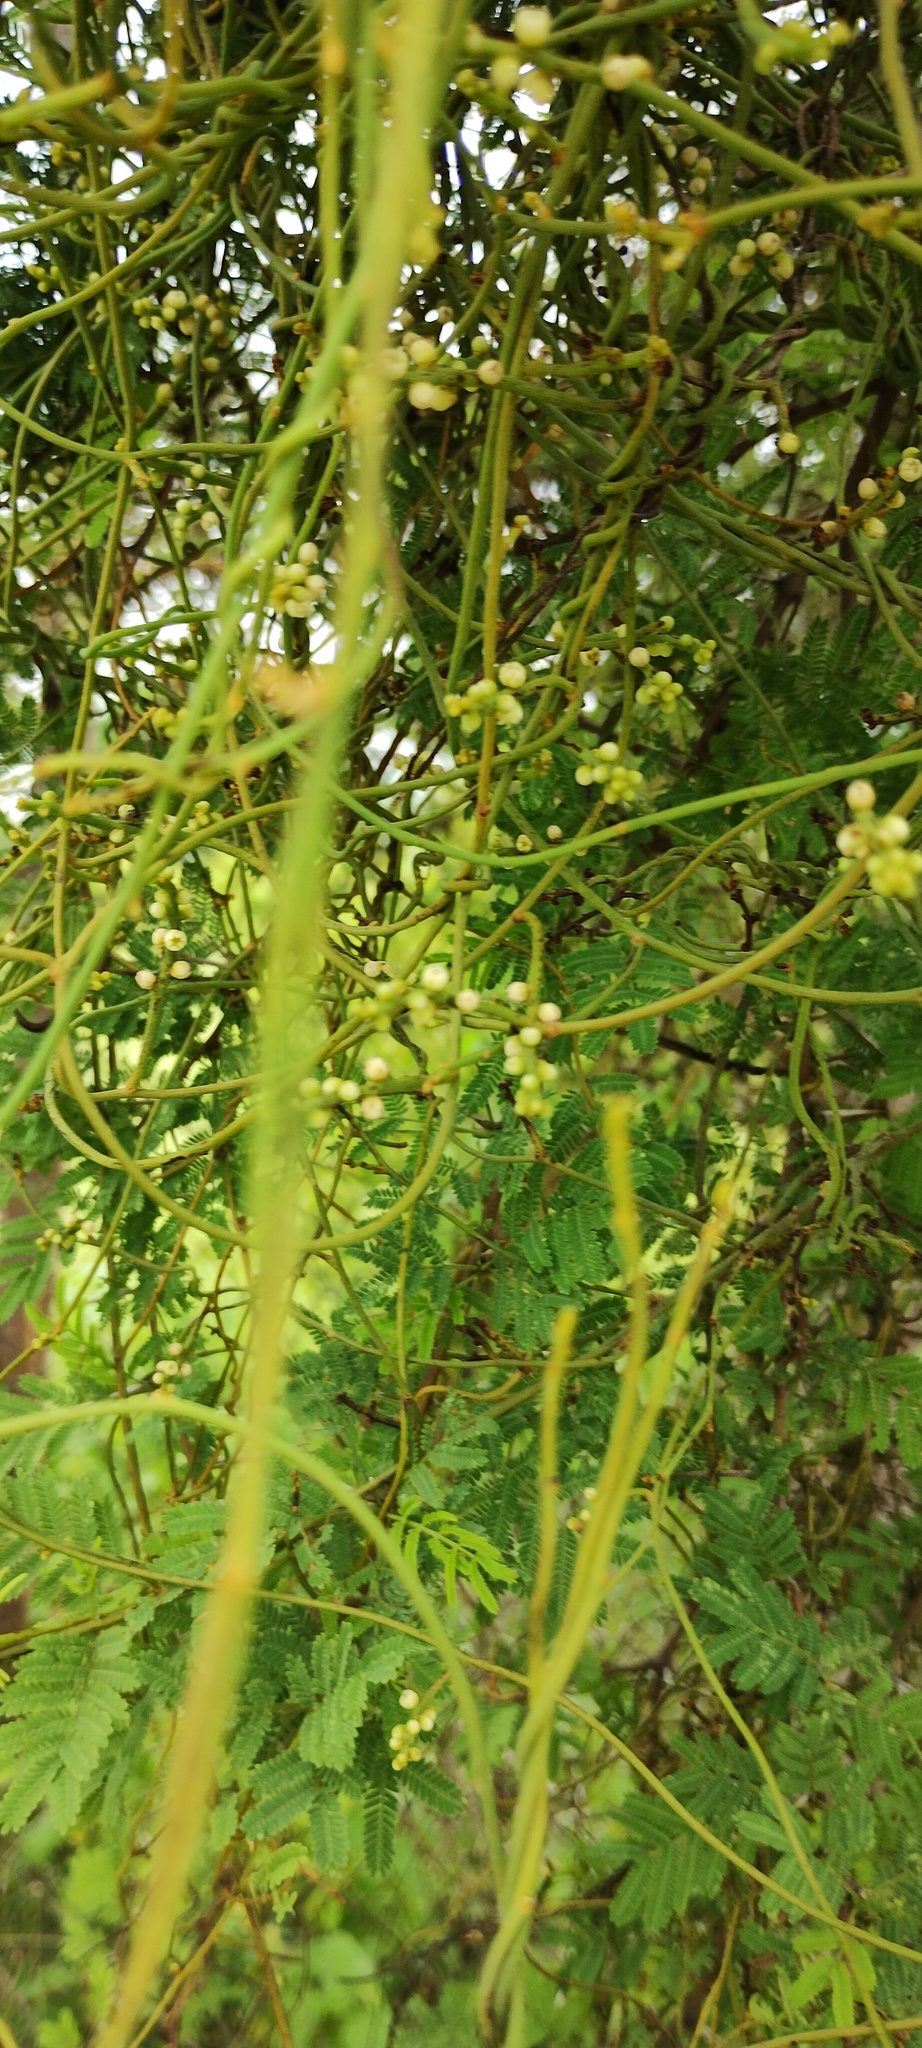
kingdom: Plantae
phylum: Tracheophyta
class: Magnoliopsida
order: Laurales
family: Lauraceae
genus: Cassytha
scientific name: Cassytha filiformis
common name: Dodder-laurel
